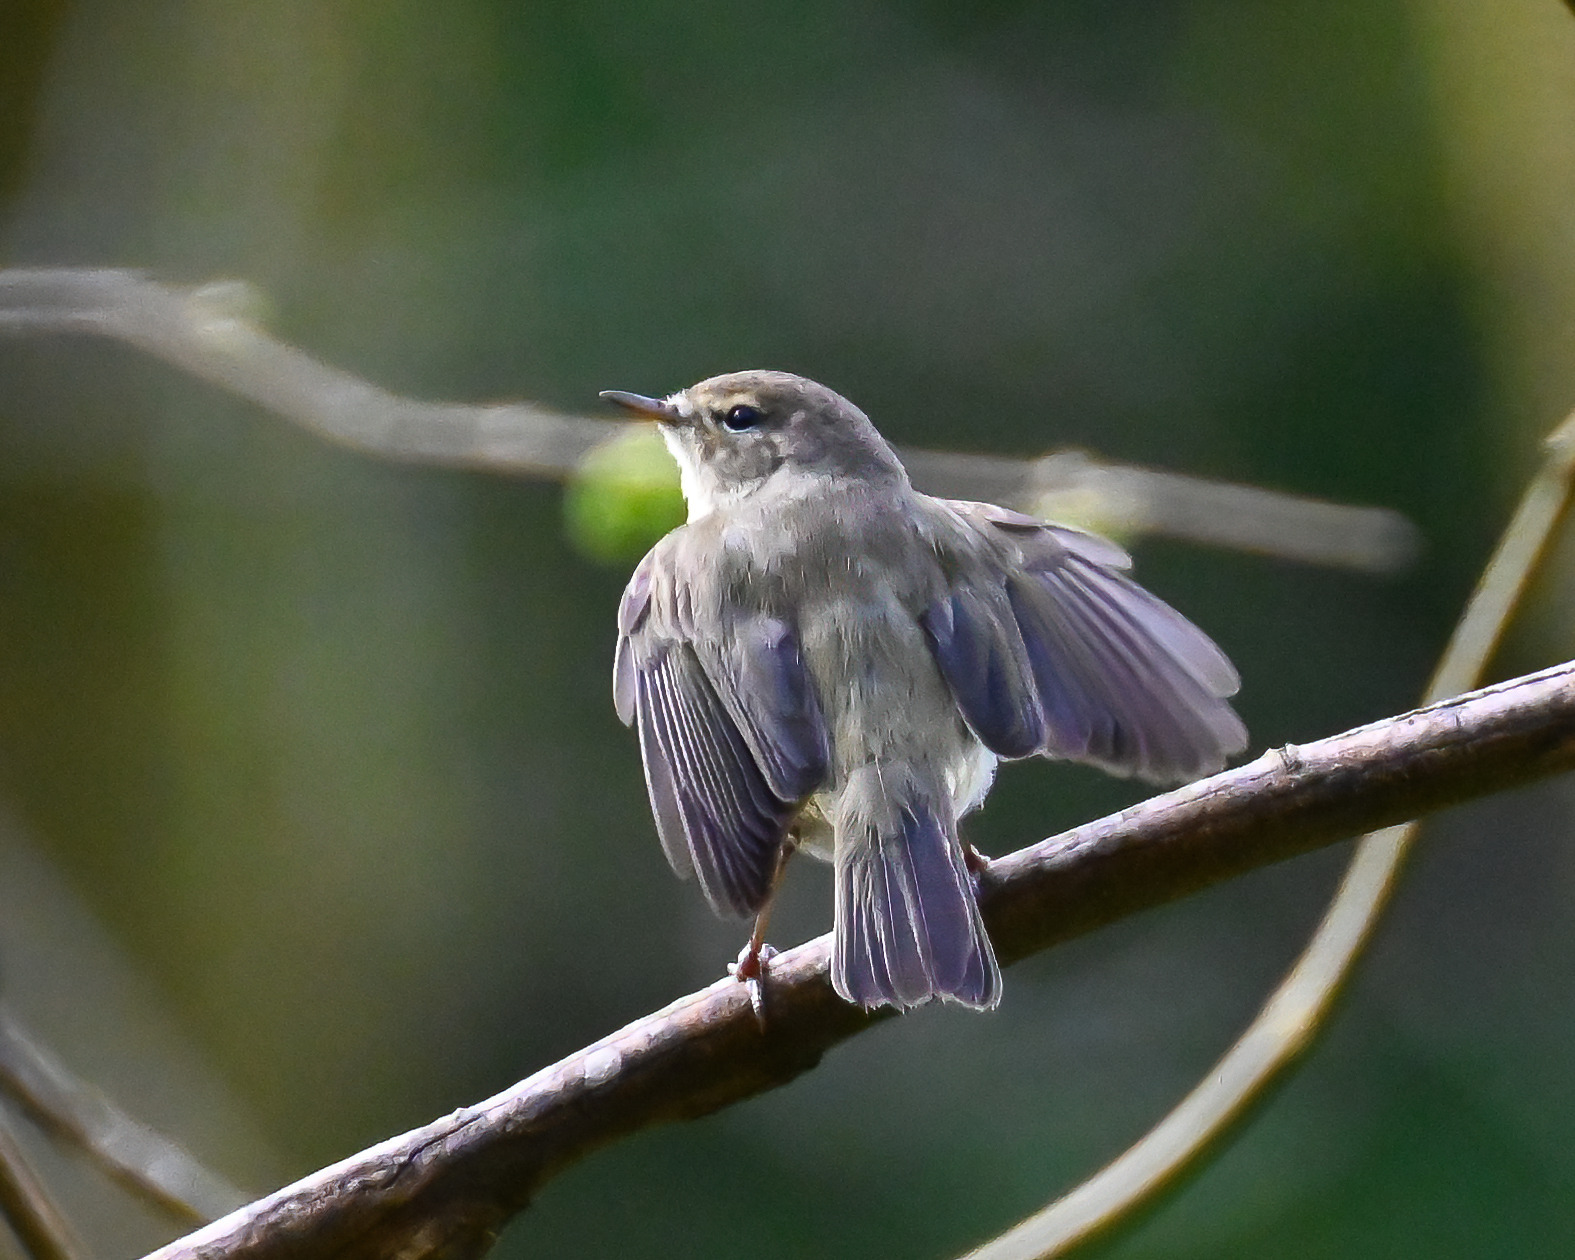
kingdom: Animalia
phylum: Chordata
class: Aves
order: Passeriformes
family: Phylloscopidae
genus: Phylloscopus
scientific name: Phylloscopus collybita
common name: Common chiffchaff
